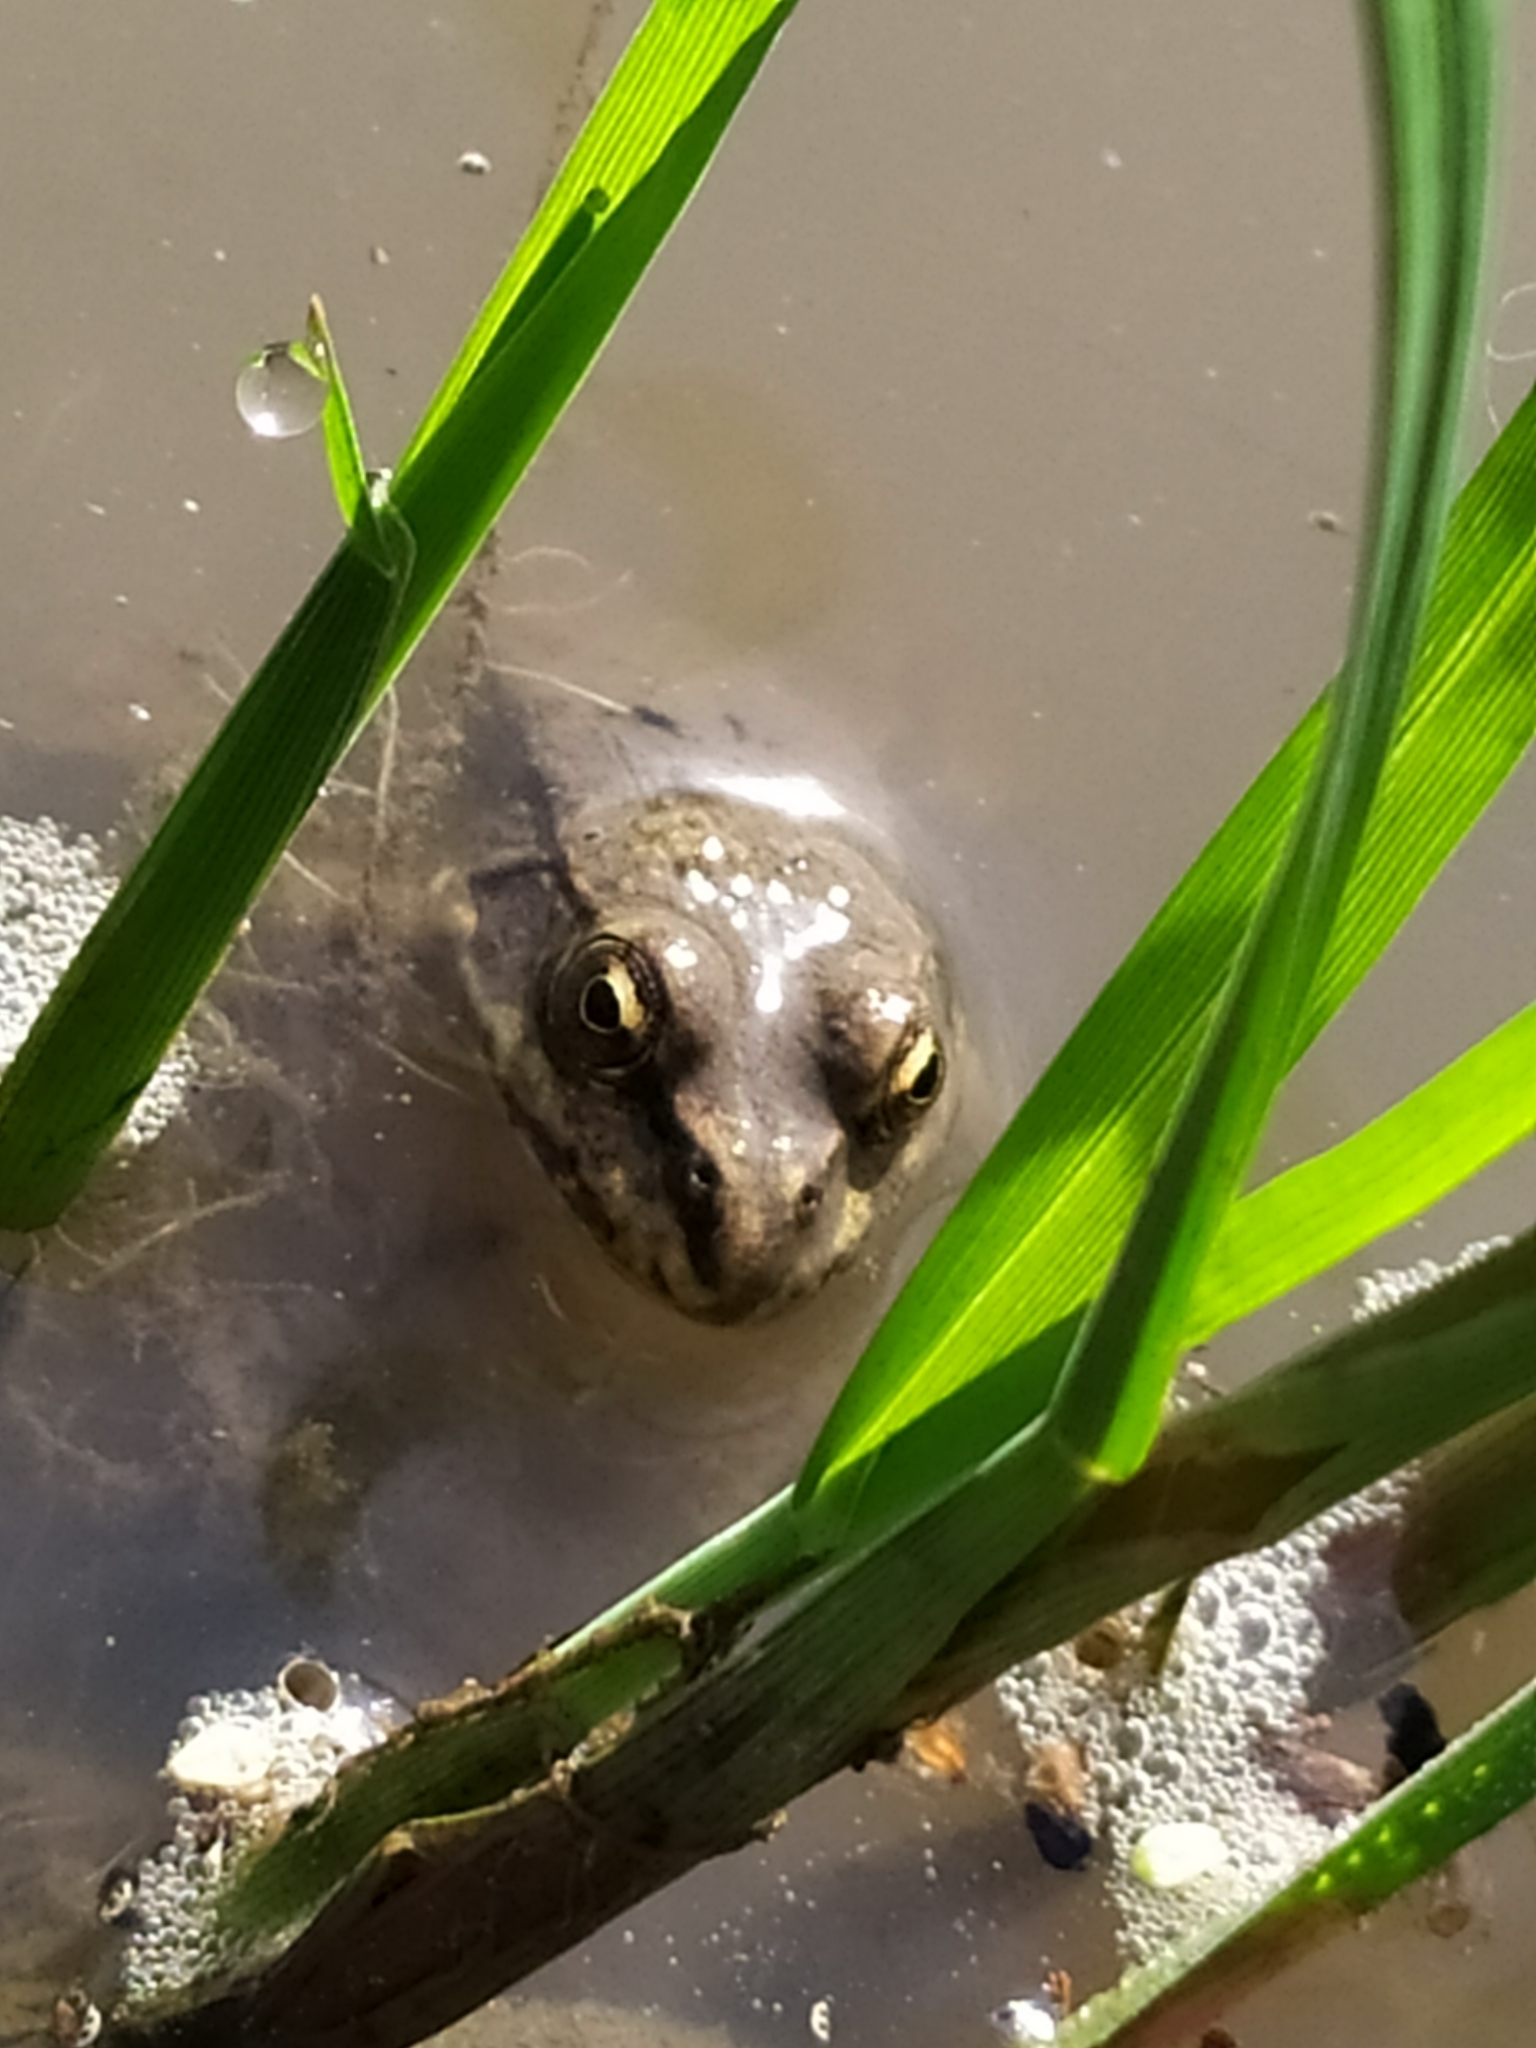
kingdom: Animalia
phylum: Chordata
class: Amphibia
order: Anura
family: Ranidae
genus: Pelophylax
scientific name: Pelophylax ridibundus
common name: Marsh frog
